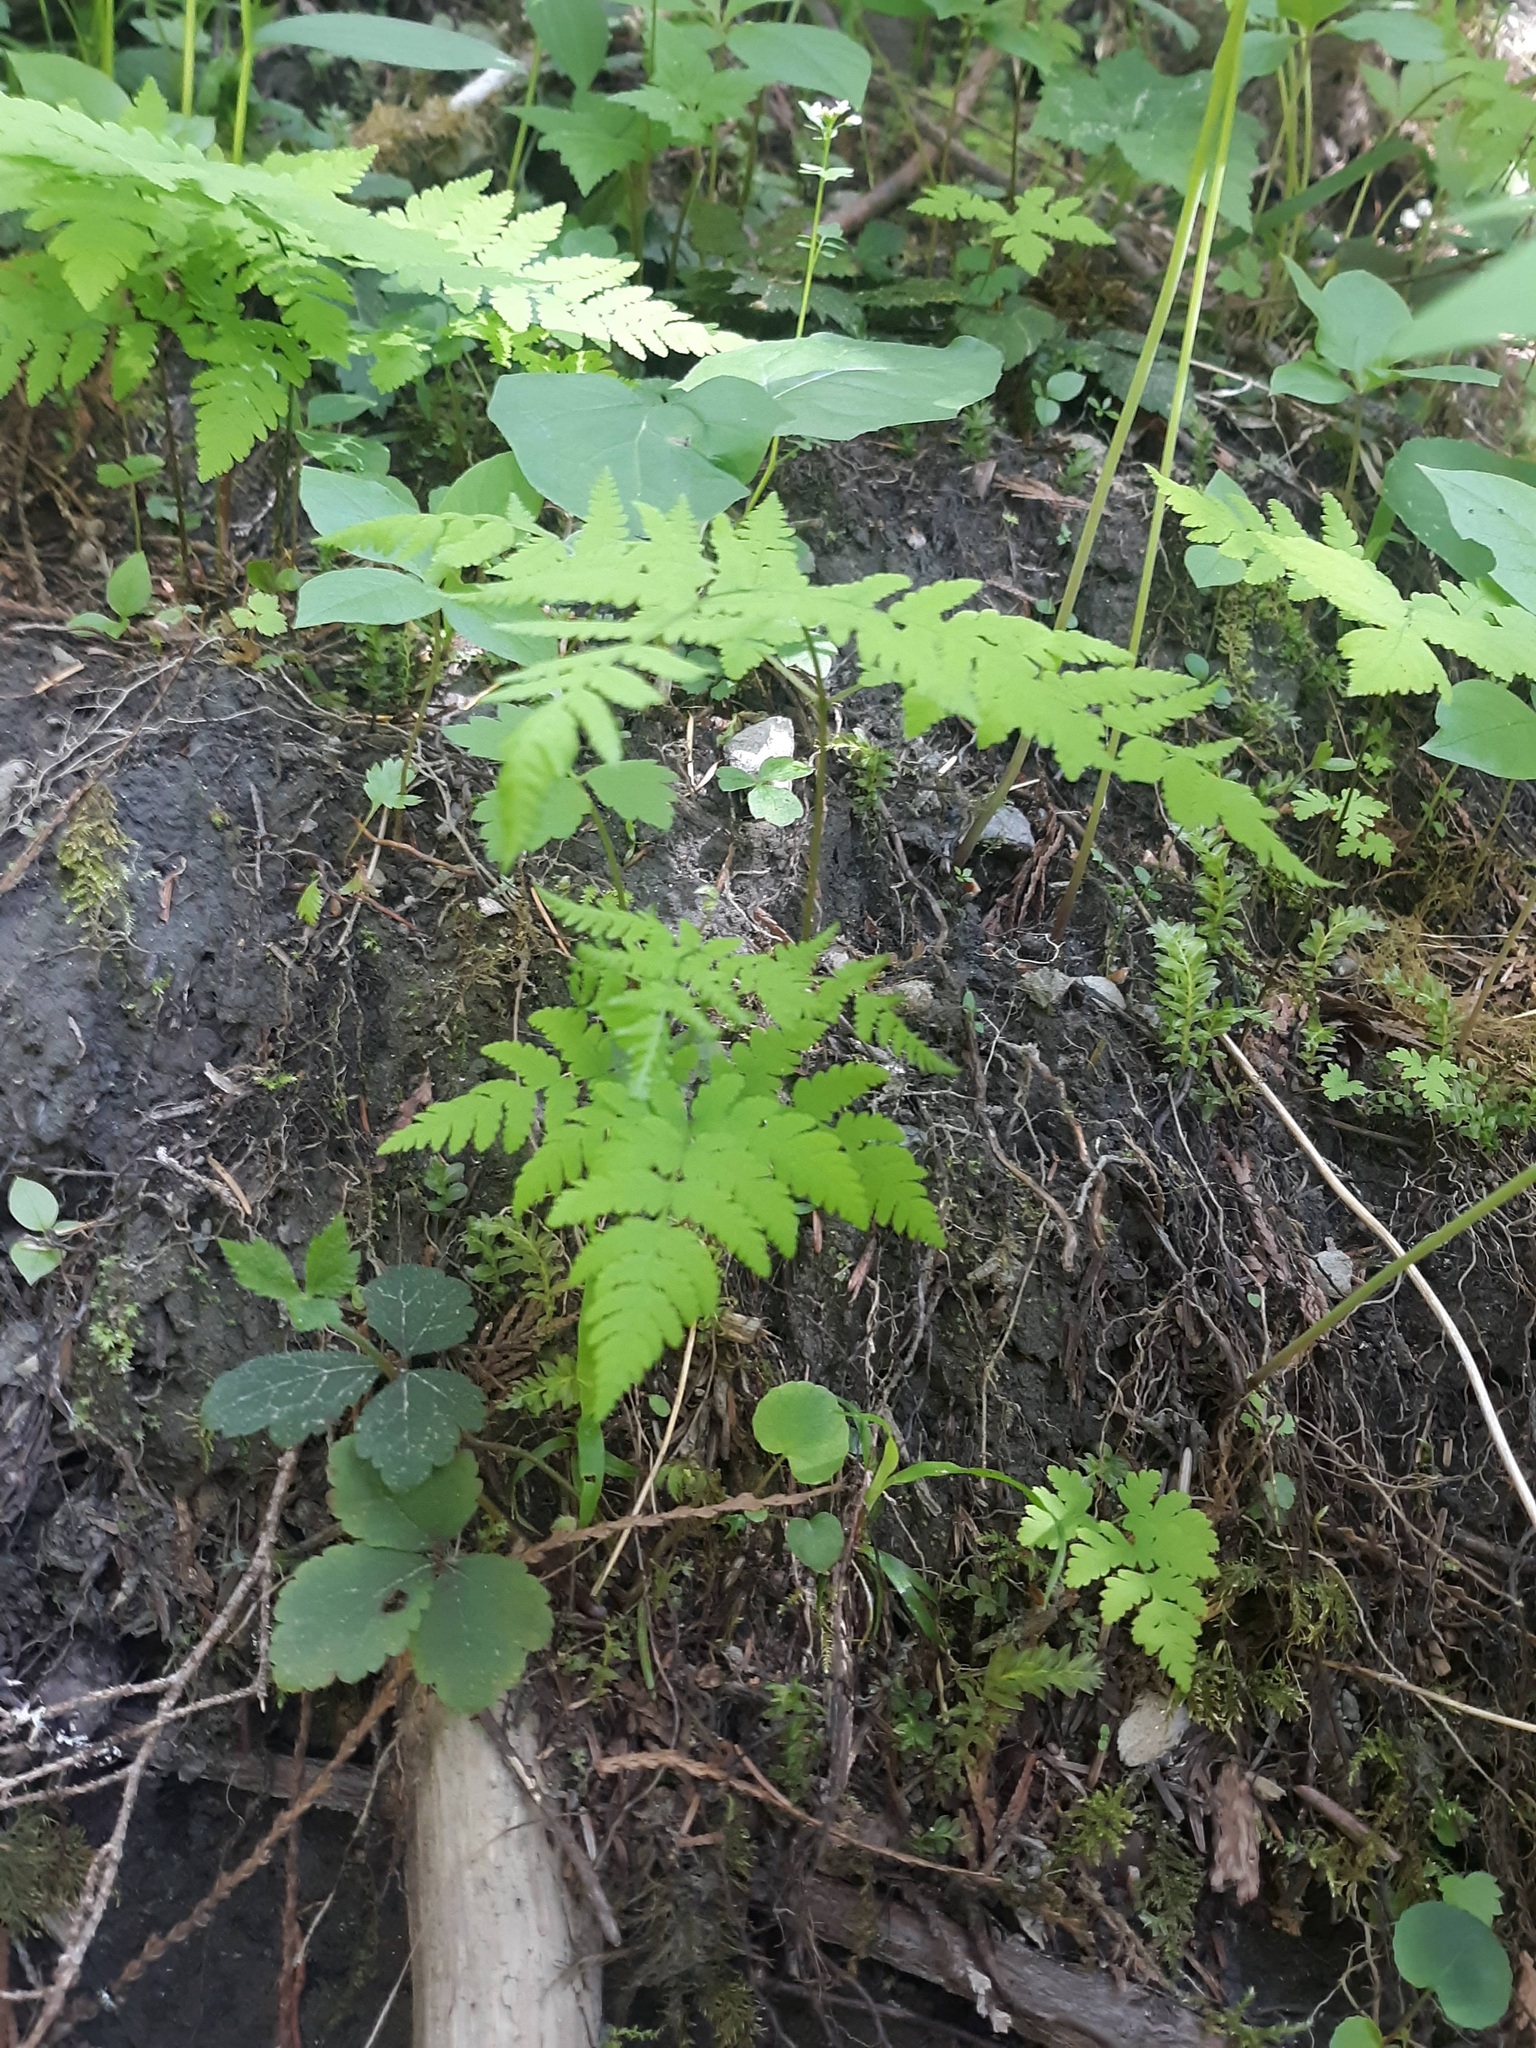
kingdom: Plantae
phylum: Tracheophyta
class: Polypodiopsida
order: Polypodiales
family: Cystopteridaceae
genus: Gymnocarpium
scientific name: Gymnocarpium disjunctum
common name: Western oak fern
